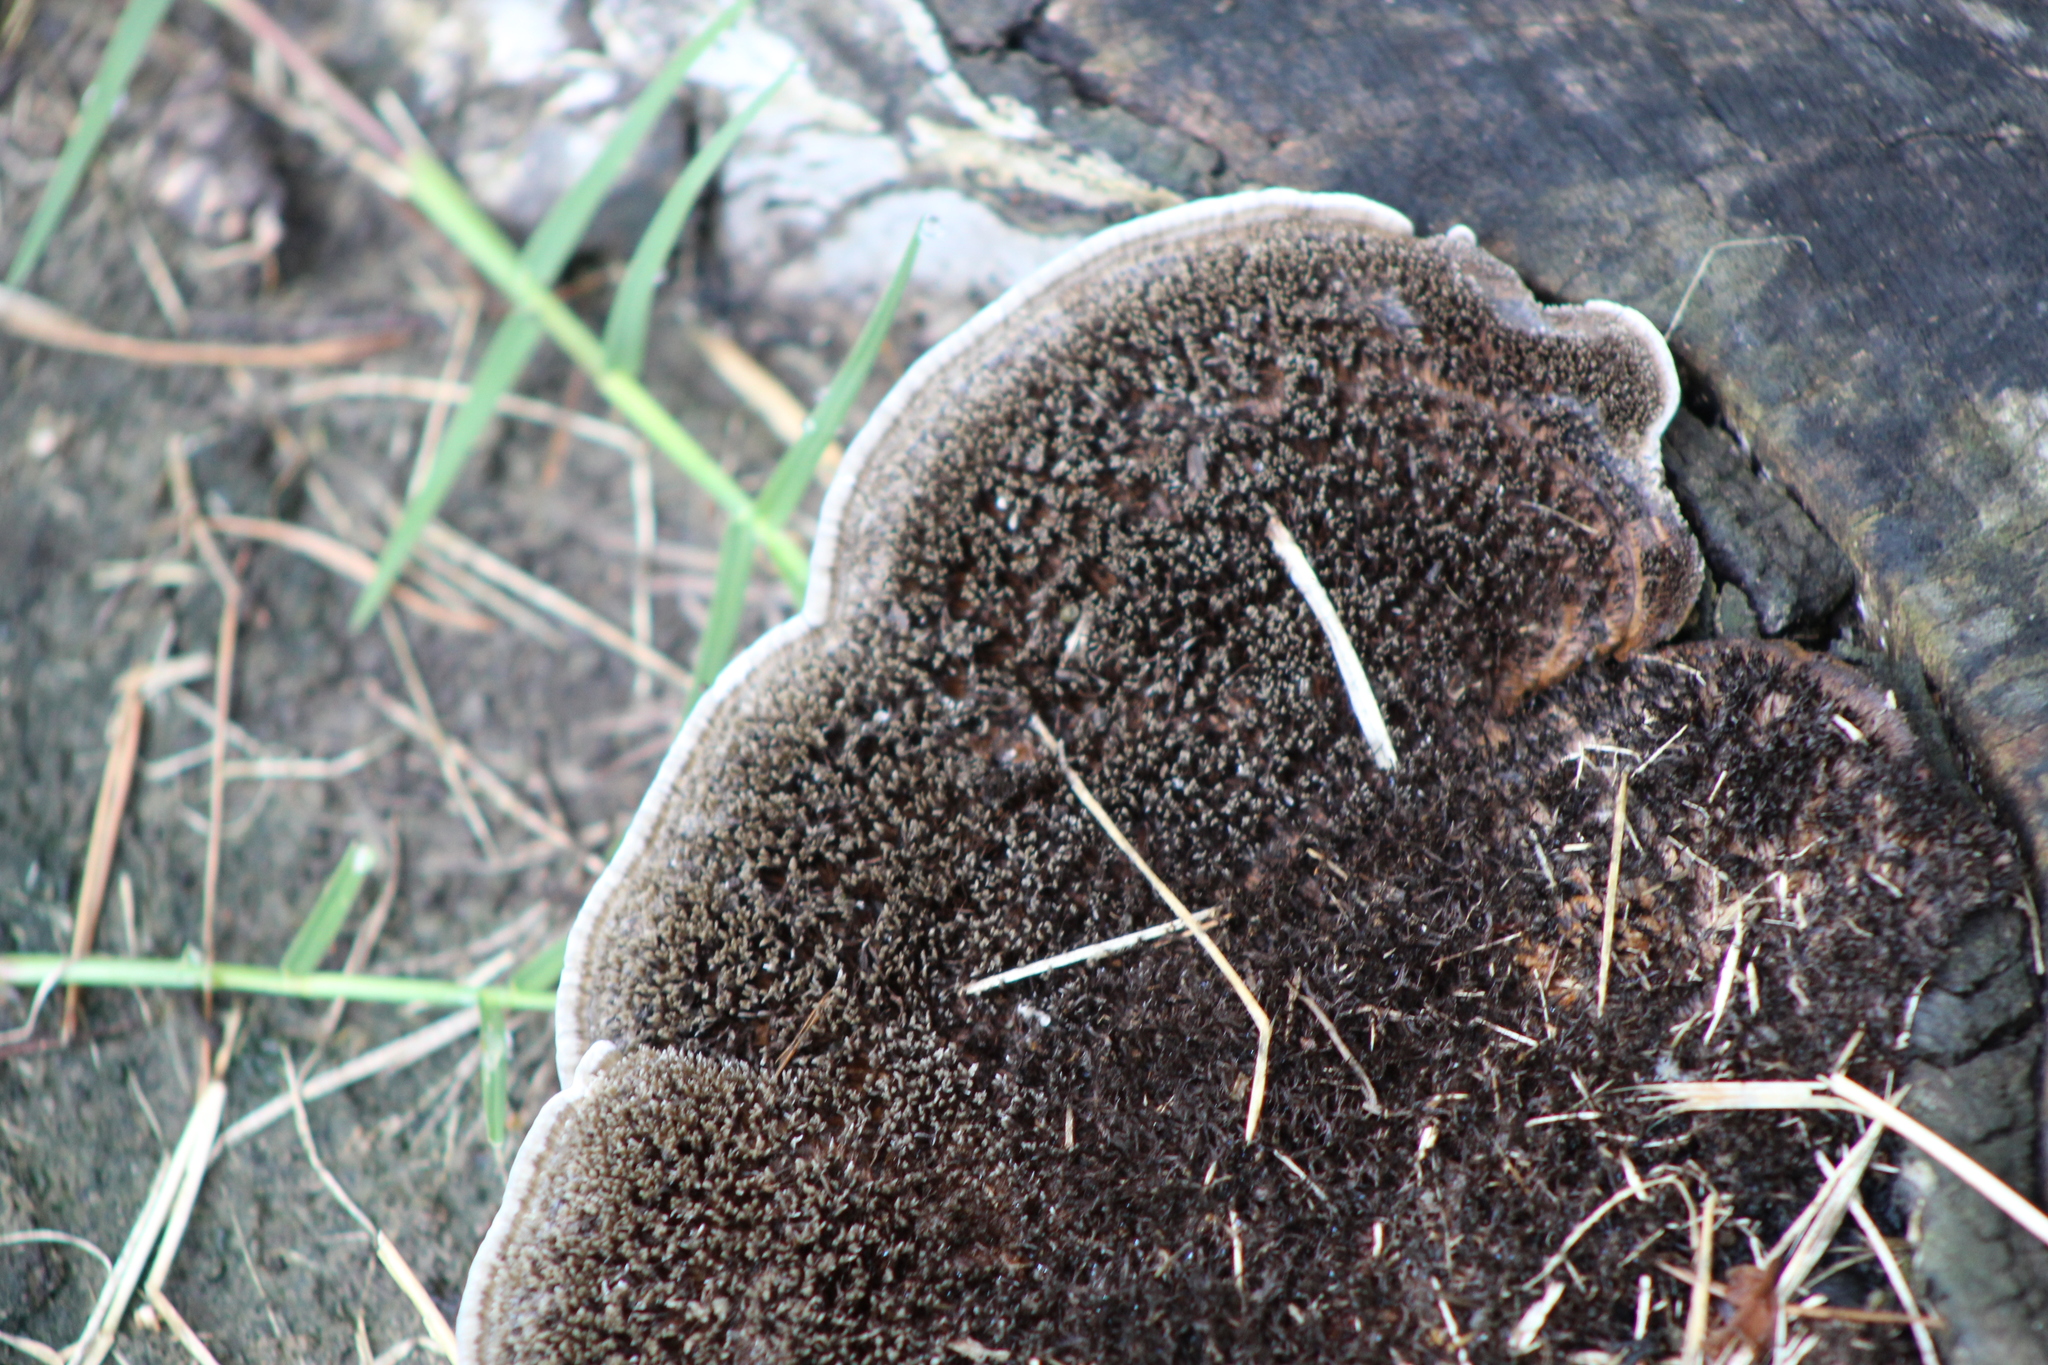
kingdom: Fungi
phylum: Basidiomycota
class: Agaricomycetes
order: Polyporales
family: Cerrenaceae
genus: Cerrena
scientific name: Cerrena hydnoides
